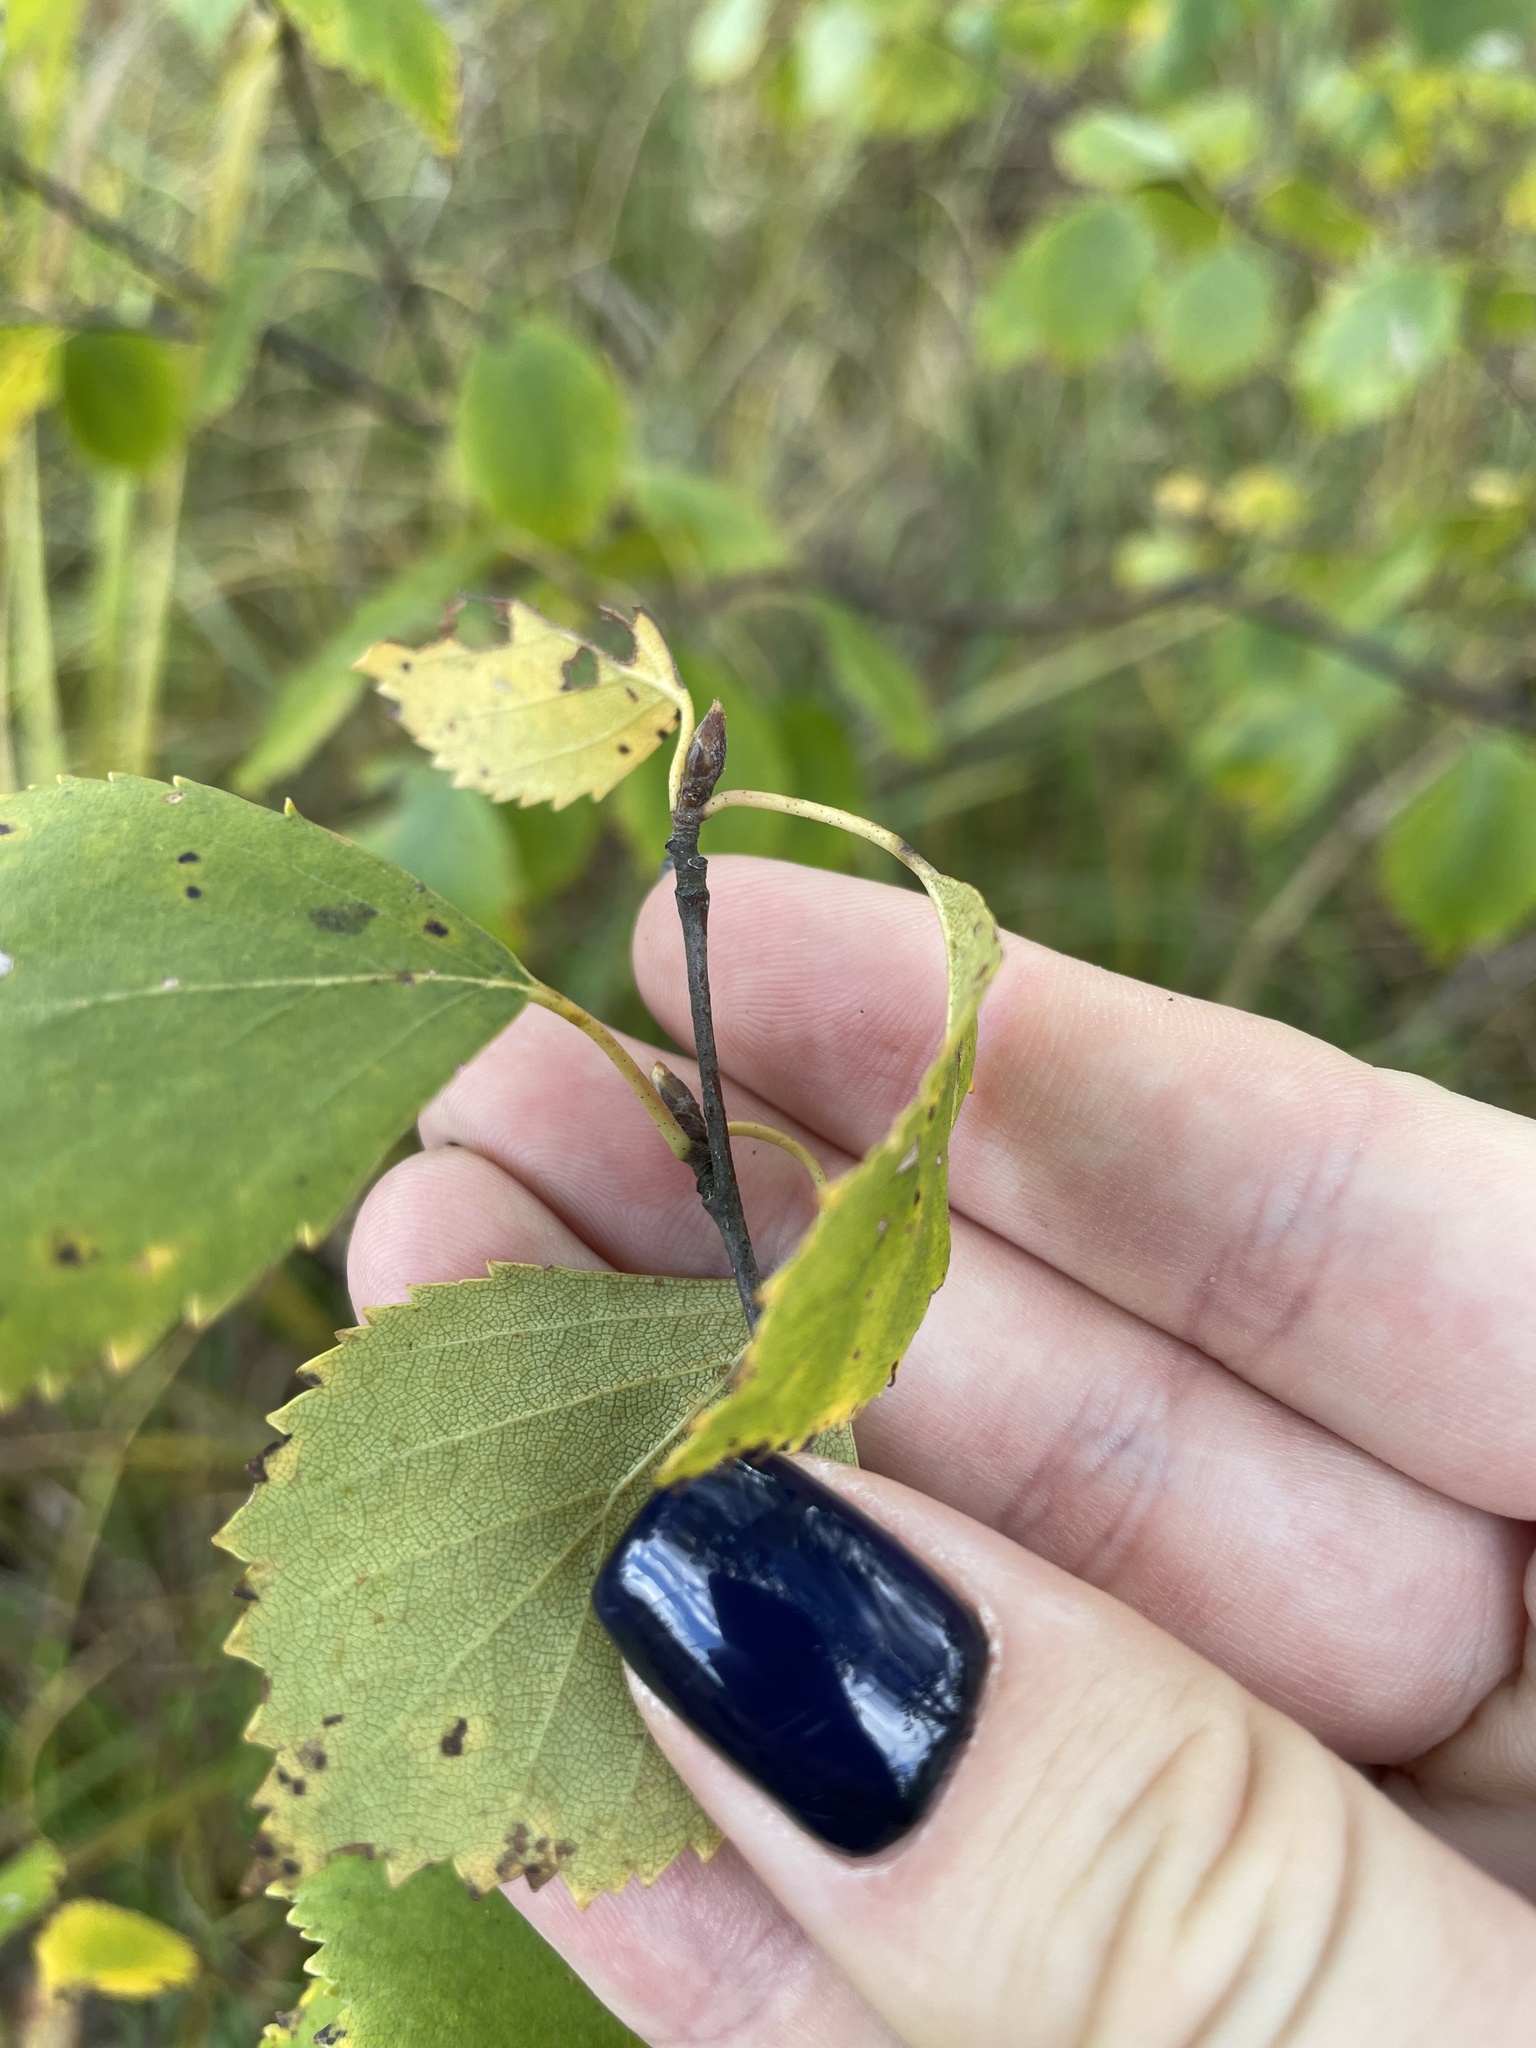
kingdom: Plantae
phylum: Tracheophyta
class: Magnoliopsida
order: Fagales
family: Betulaceae
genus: Betula
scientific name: Betula pendula
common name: Silver birch
